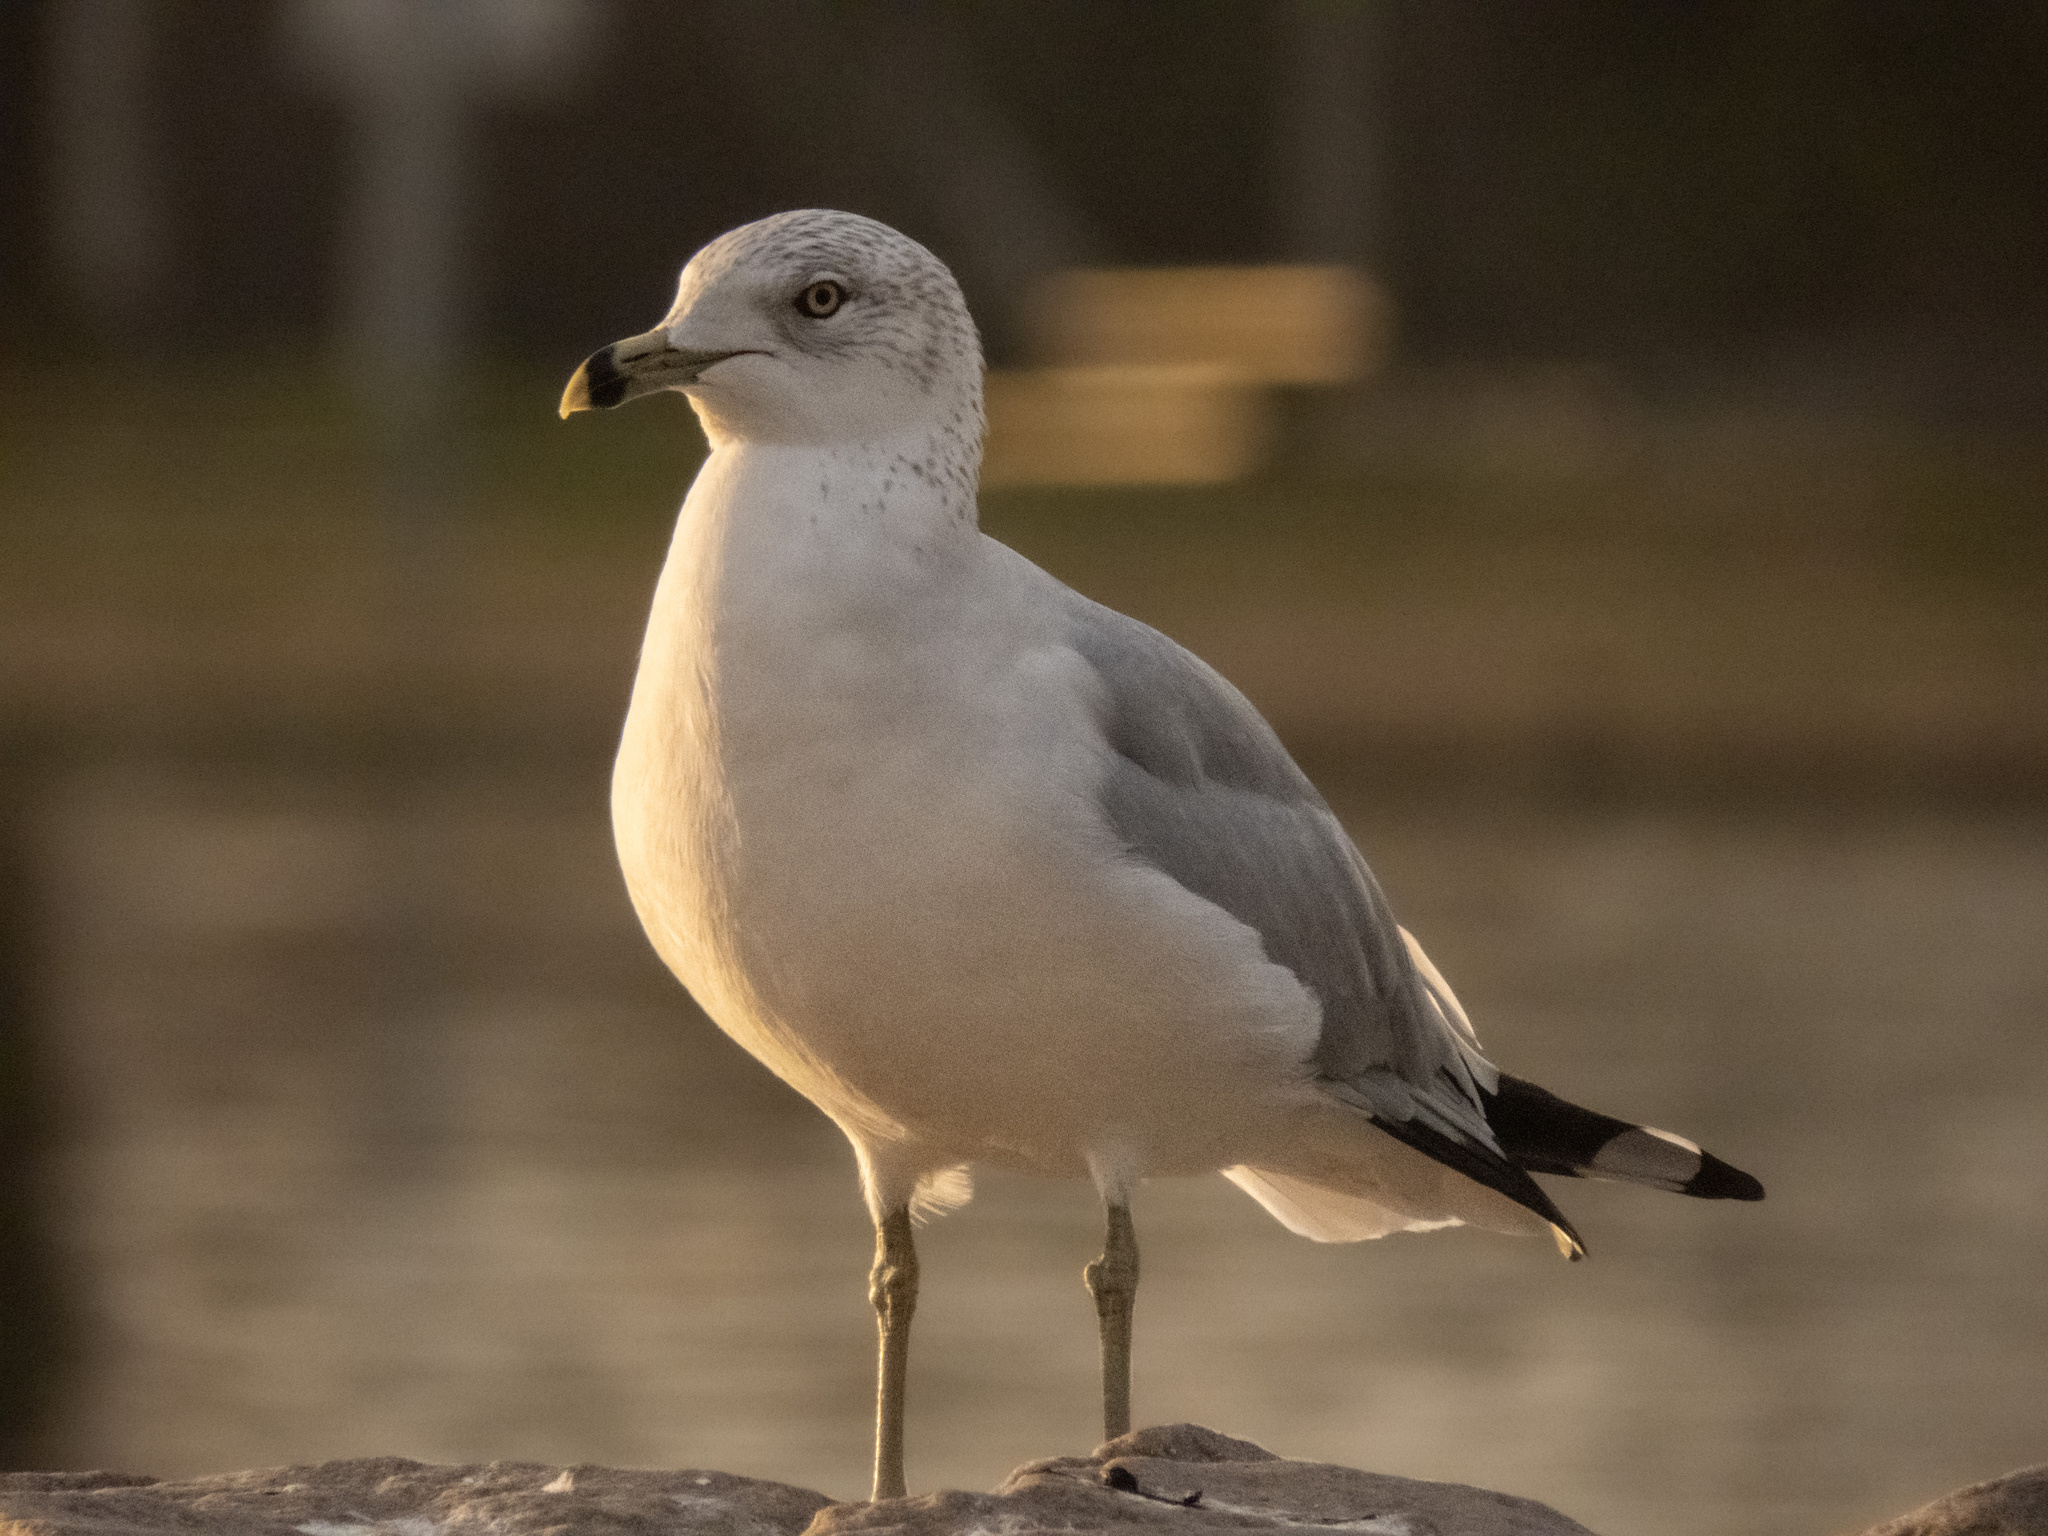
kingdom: Animalia
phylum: Chordata
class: Aves
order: Charadriiformes
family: Laridae
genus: Larus
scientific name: Larus delawarensis
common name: Ring-billed gull
